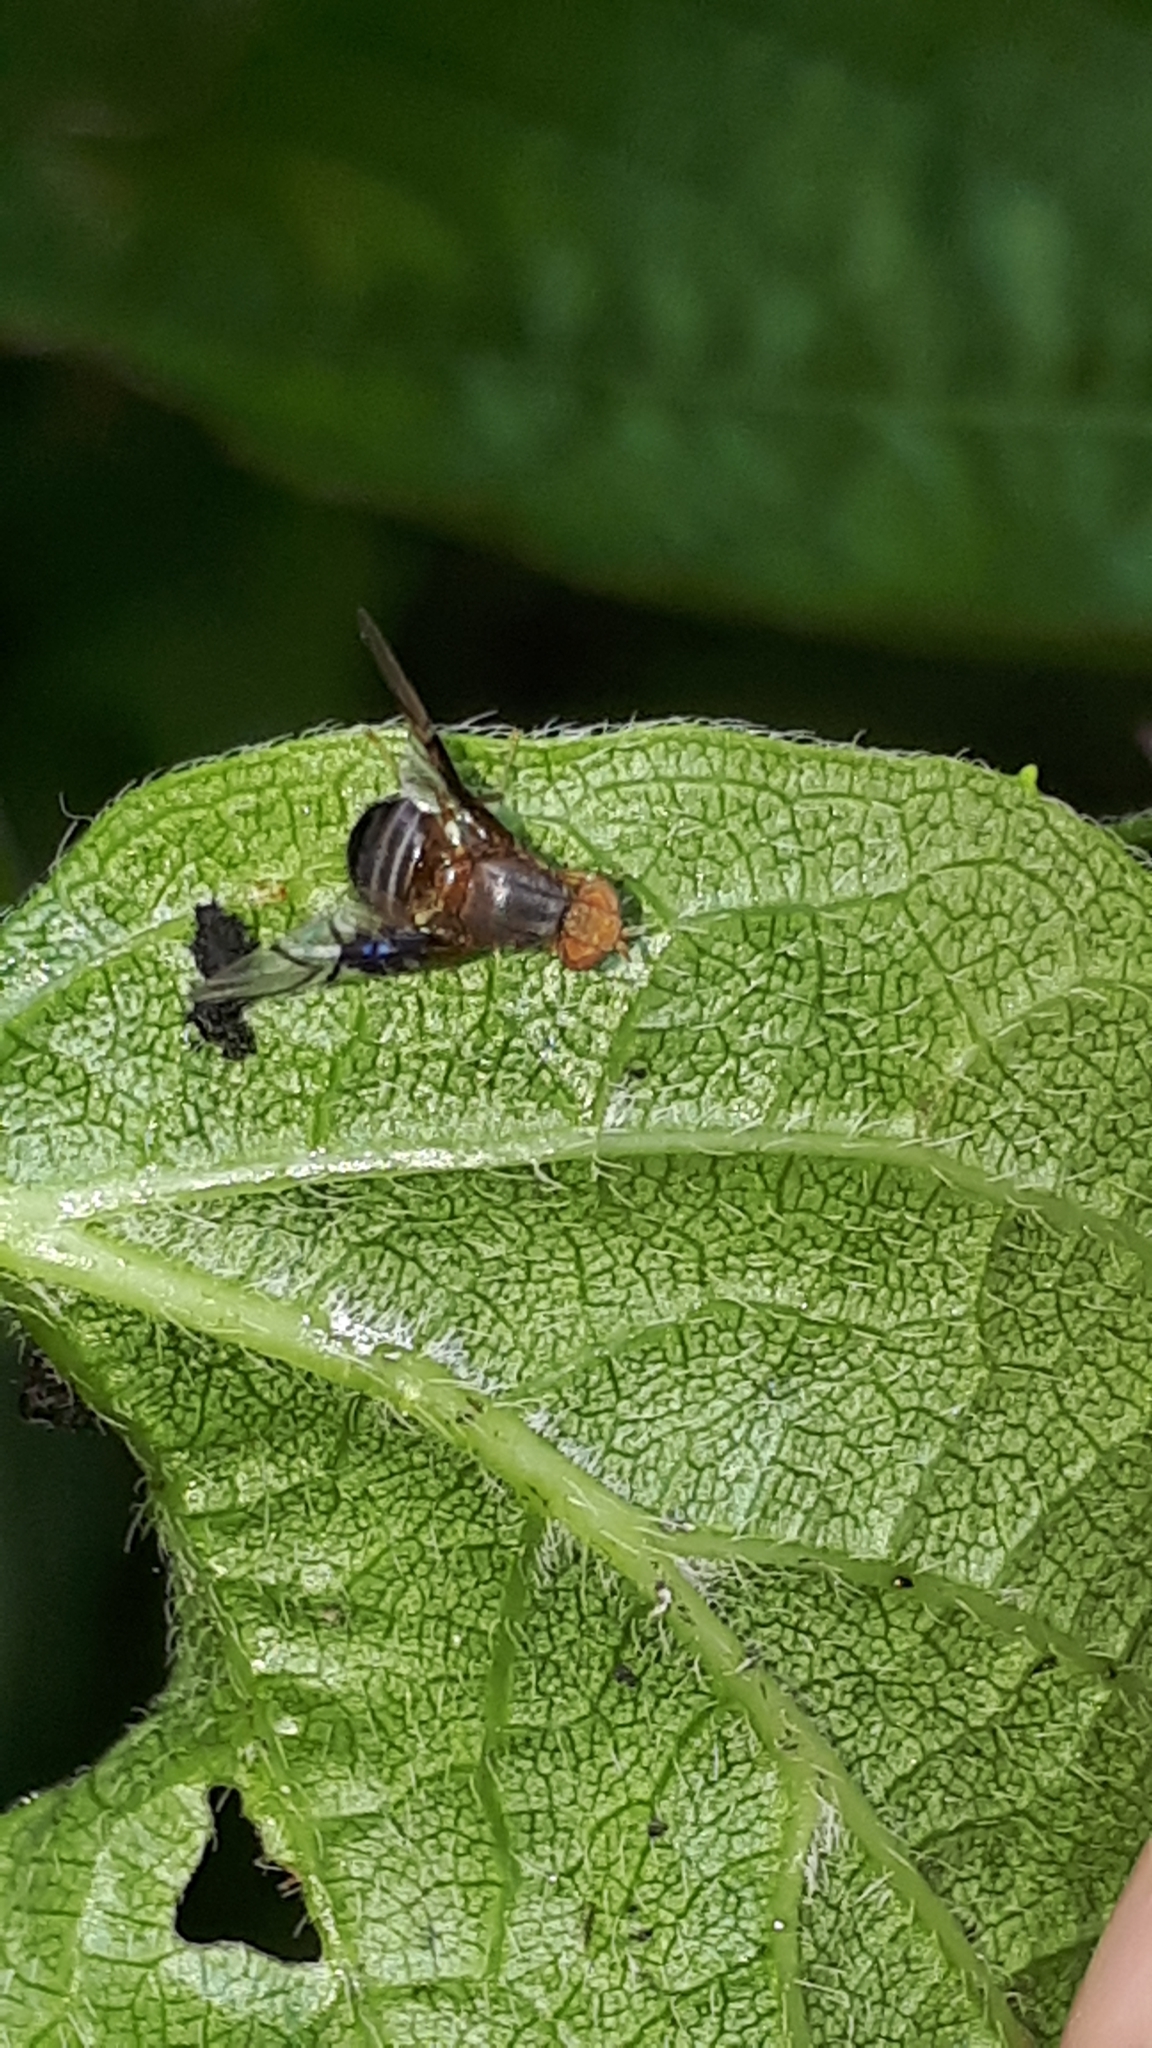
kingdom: Animalia
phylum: Arthropoda
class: Insecta
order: Diptera
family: Tephritidae
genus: Anomoia
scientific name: Anomoia purmunda
